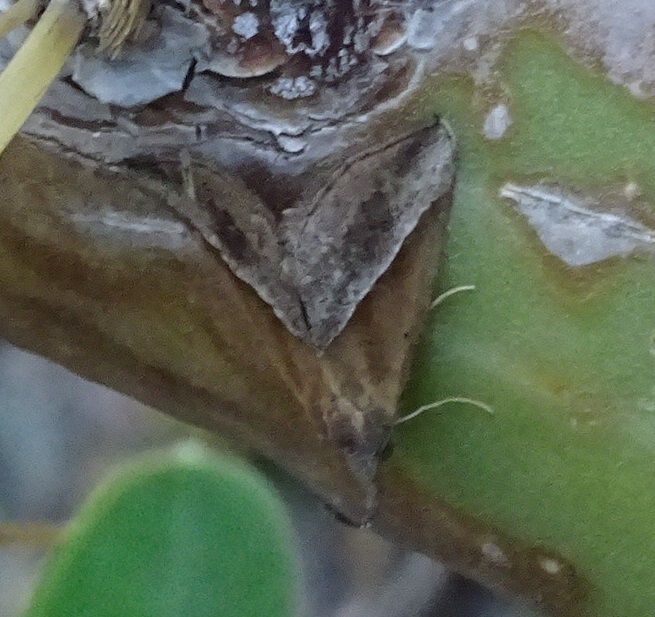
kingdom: Animalia
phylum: Arthropoda
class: Insecta
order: Lepidoptera
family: Erebidae
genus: Hypena
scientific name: Hypena lividalis
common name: Chevron snout
